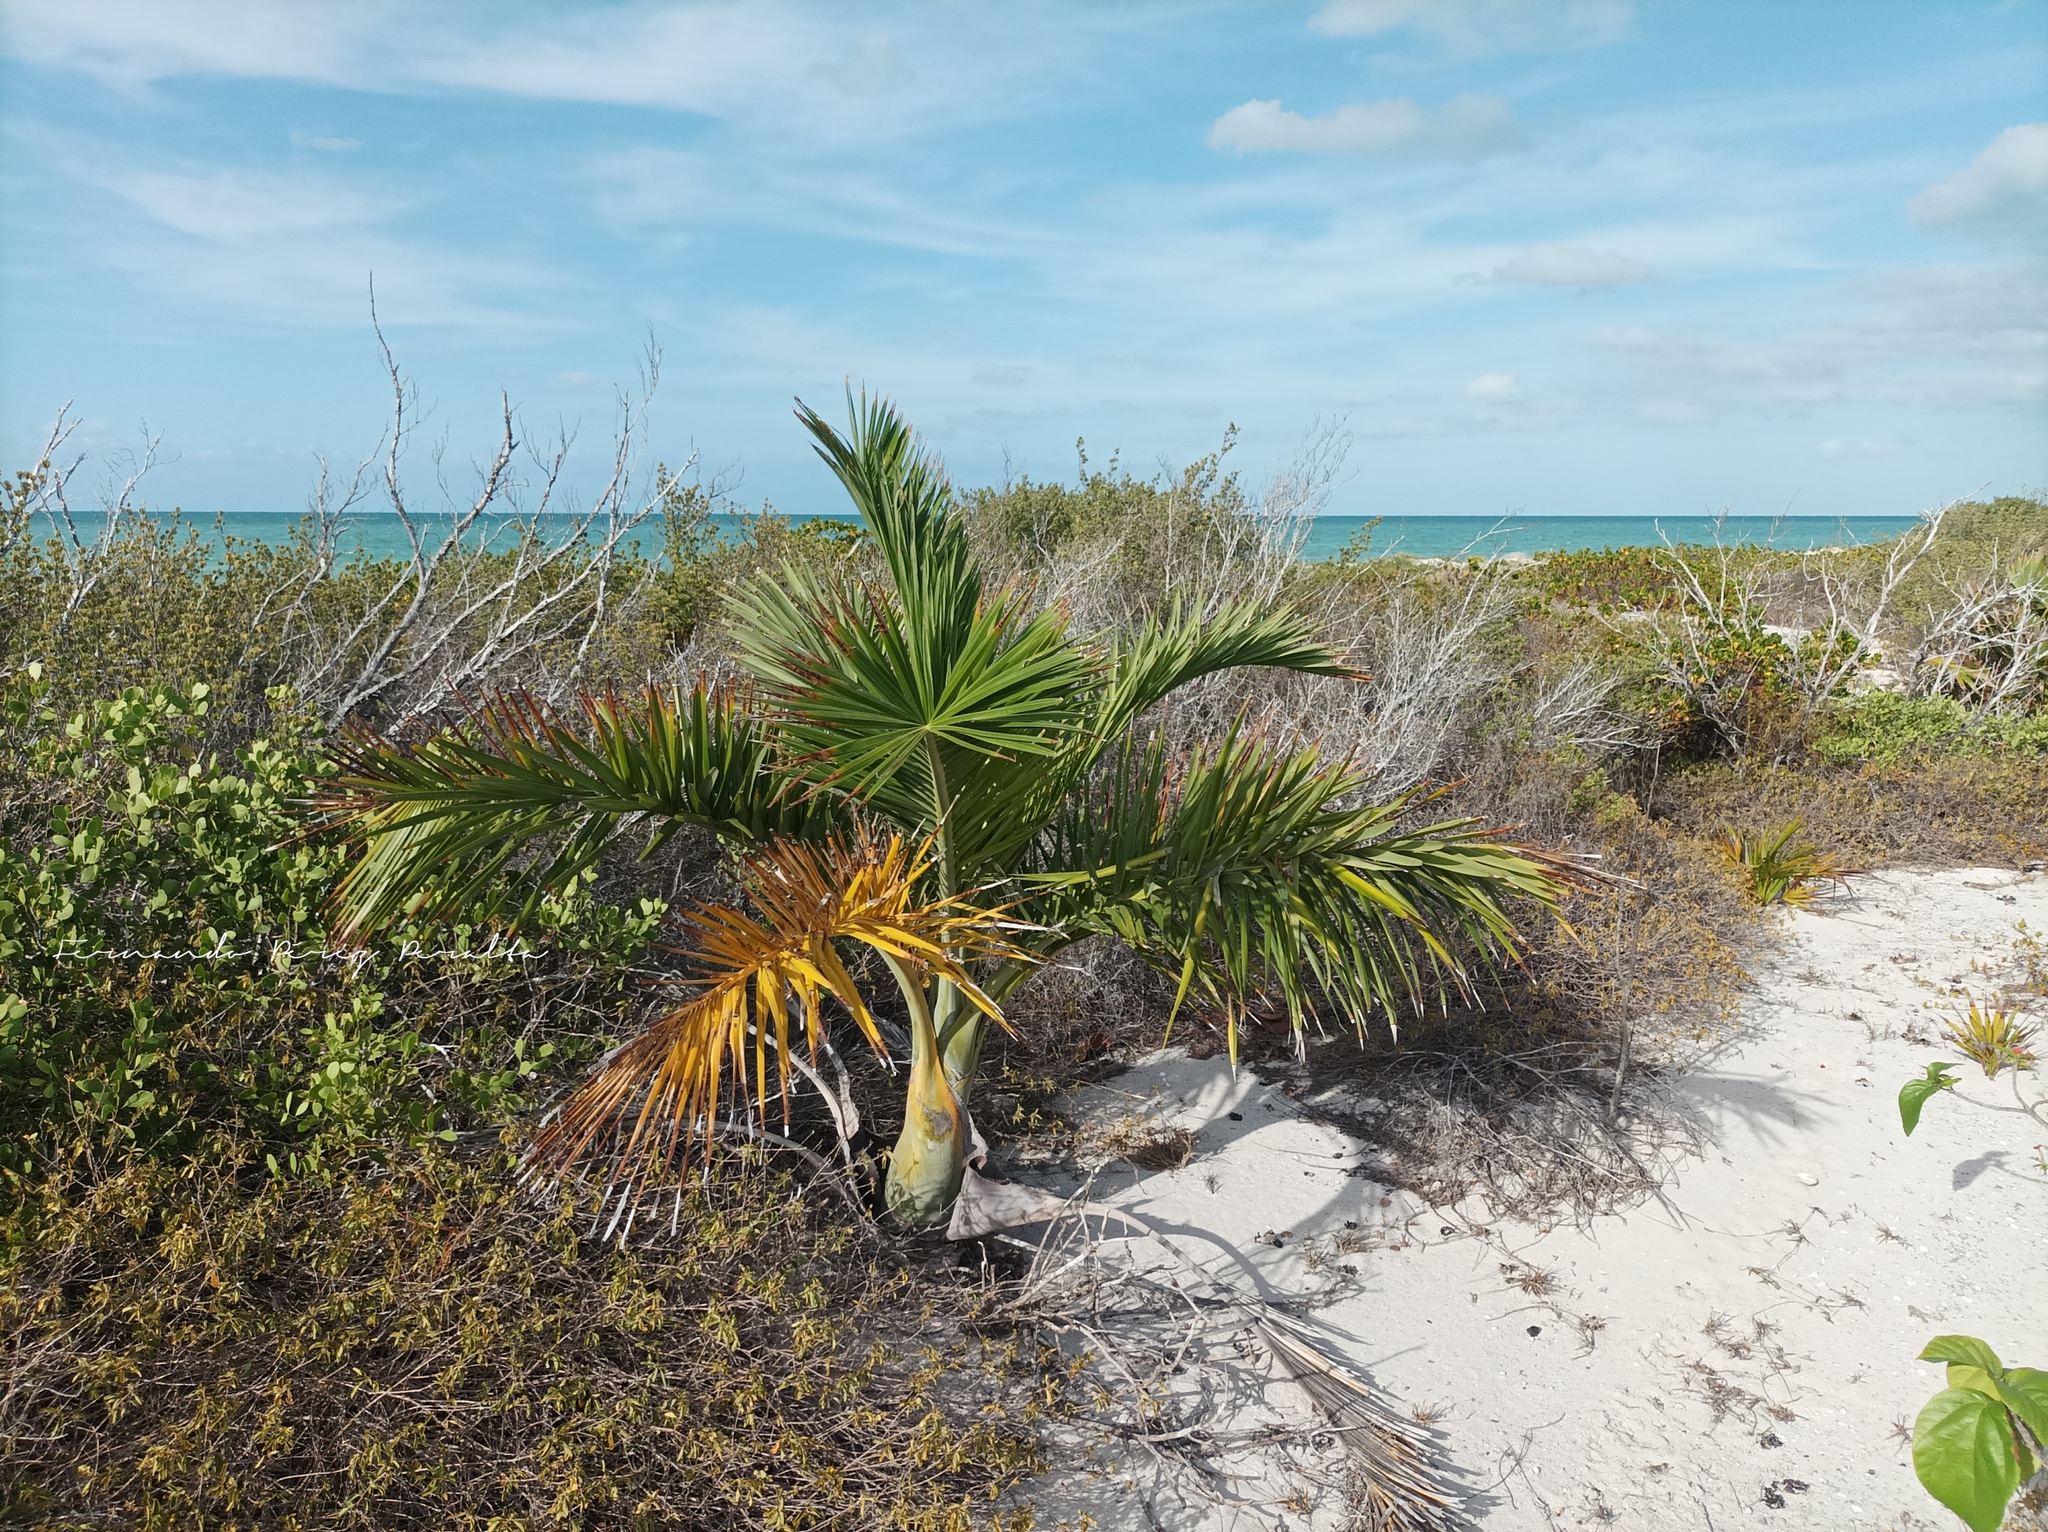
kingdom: Plantae
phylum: Tracheophyta
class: Liliopsida
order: Arecales
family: Arecaceae
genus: Pseudophoenix
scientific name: Pseudophoenix sargentii
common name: Buccaneer palm
